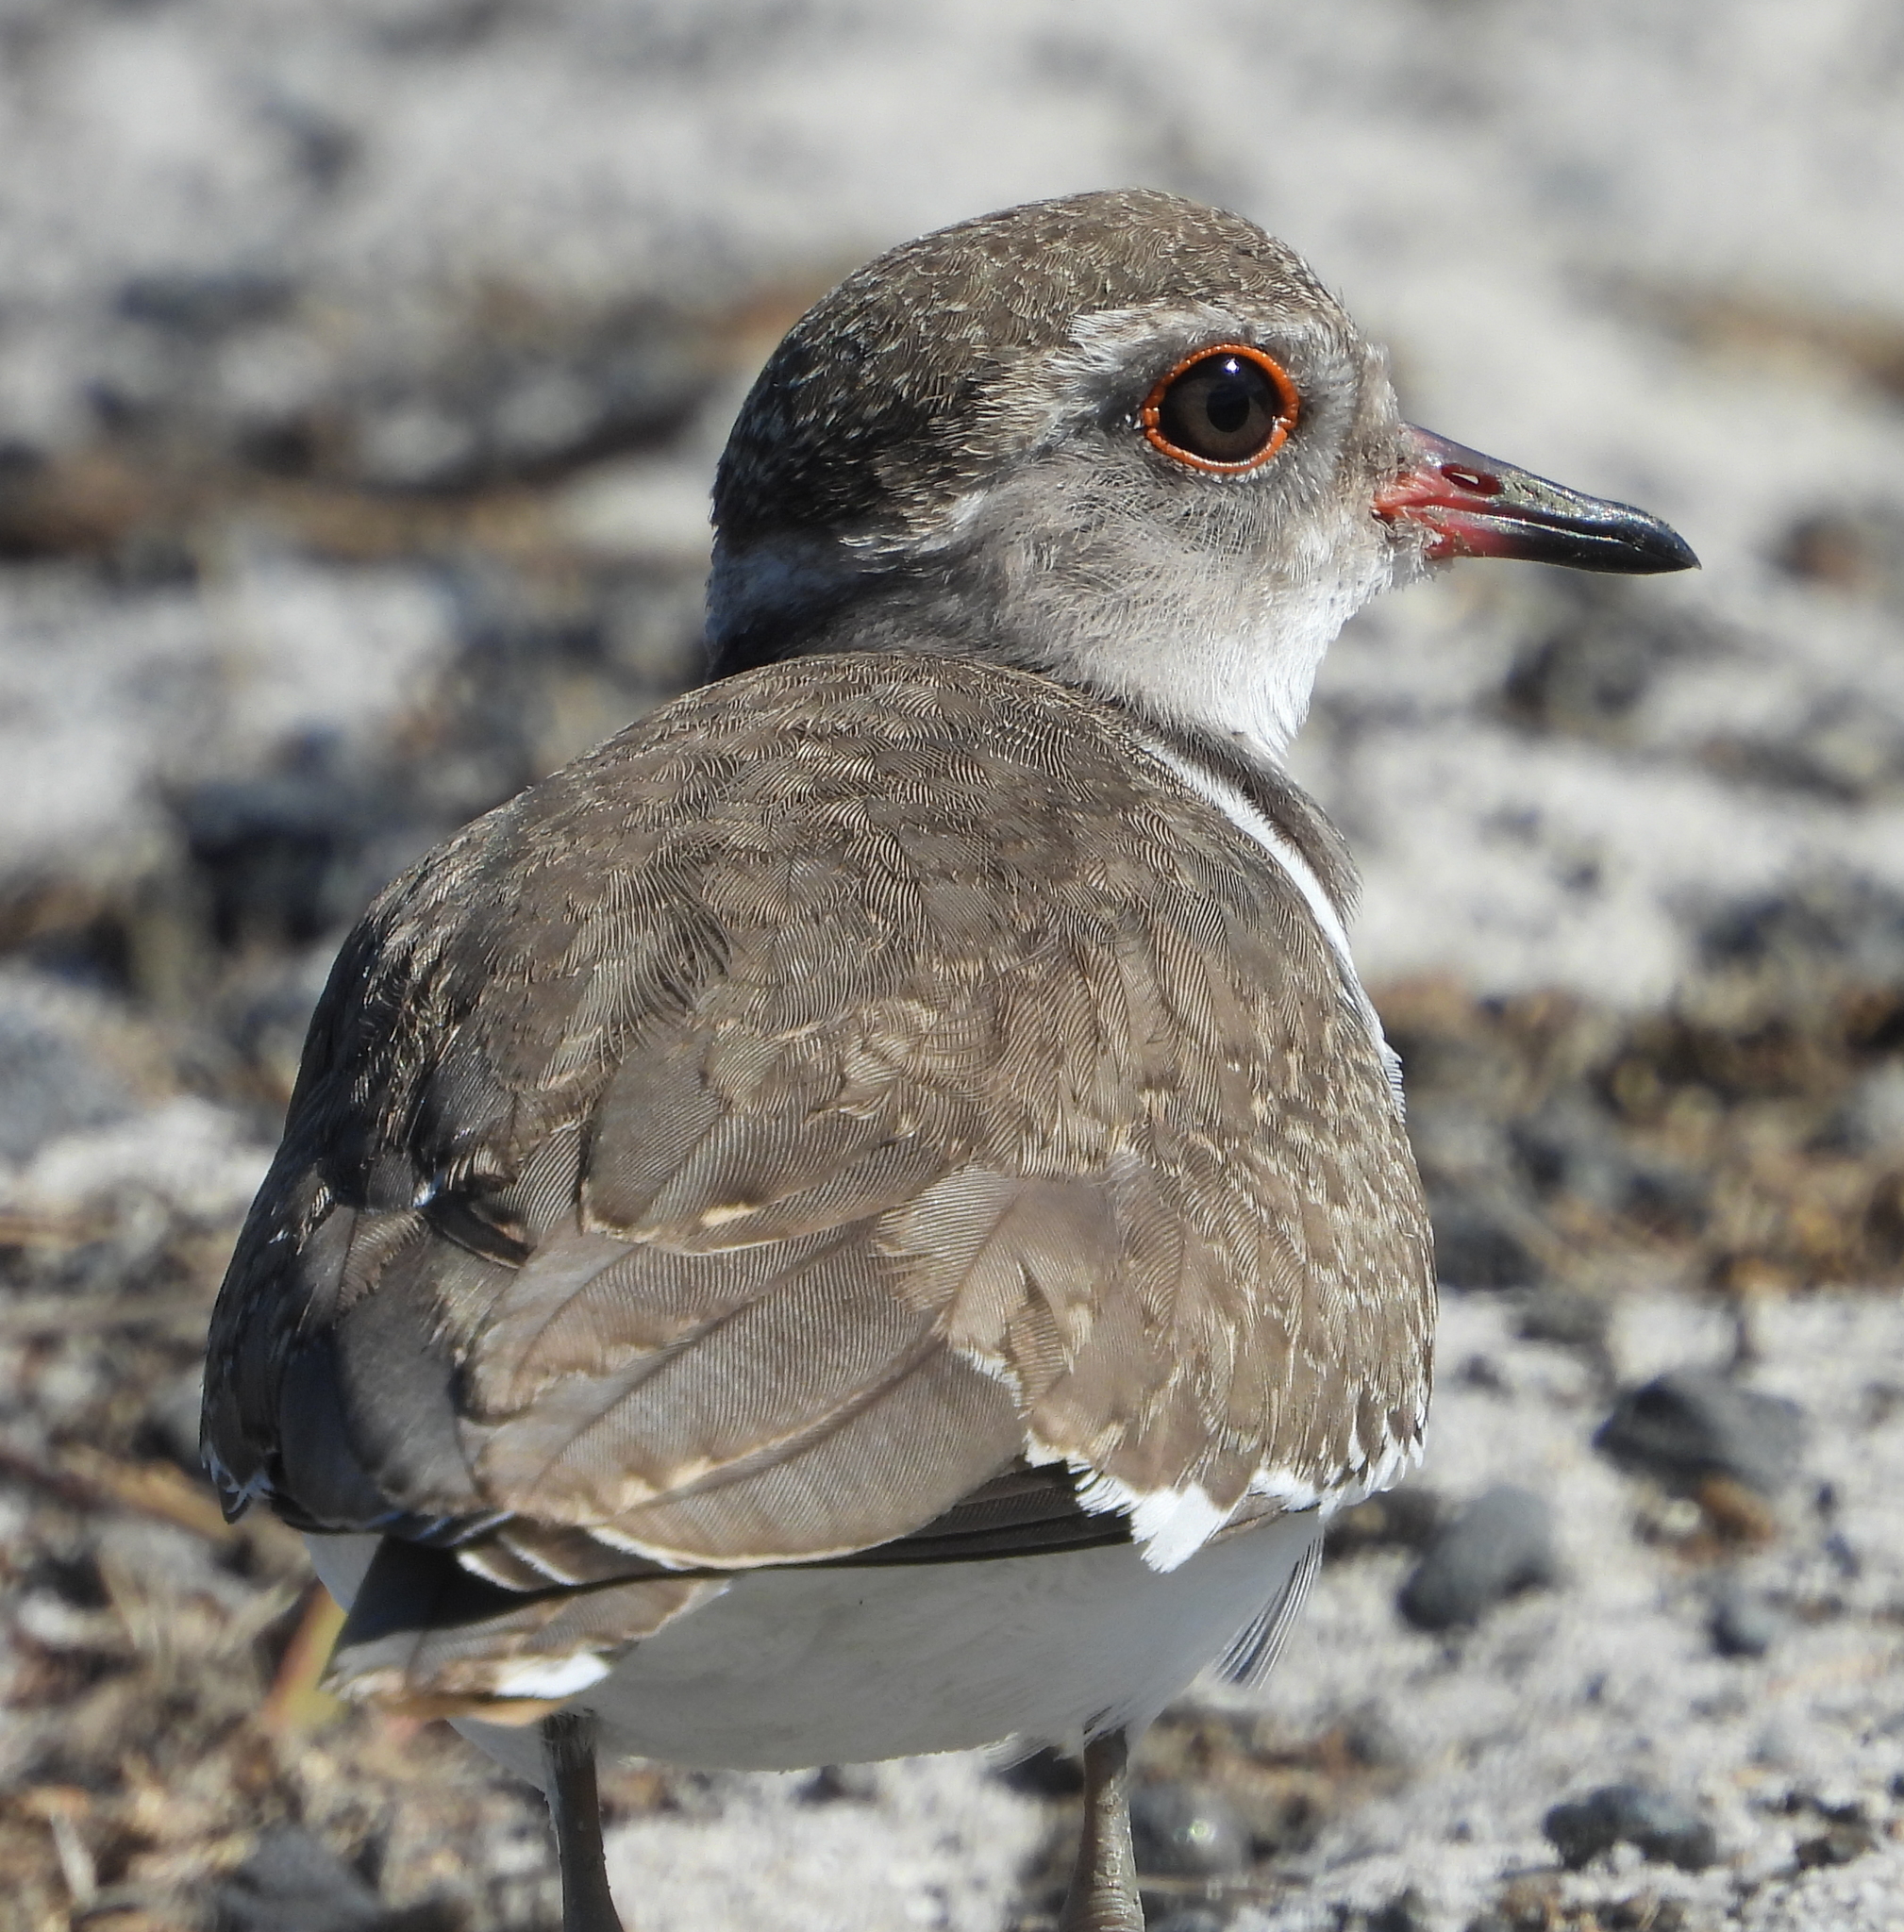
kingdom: Animalia
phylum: Chordata
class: Aves
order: Charadriiformes
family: Charadriidae
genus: Charadrius
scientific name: Charadrius tricollaris
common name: Three-banded plover
